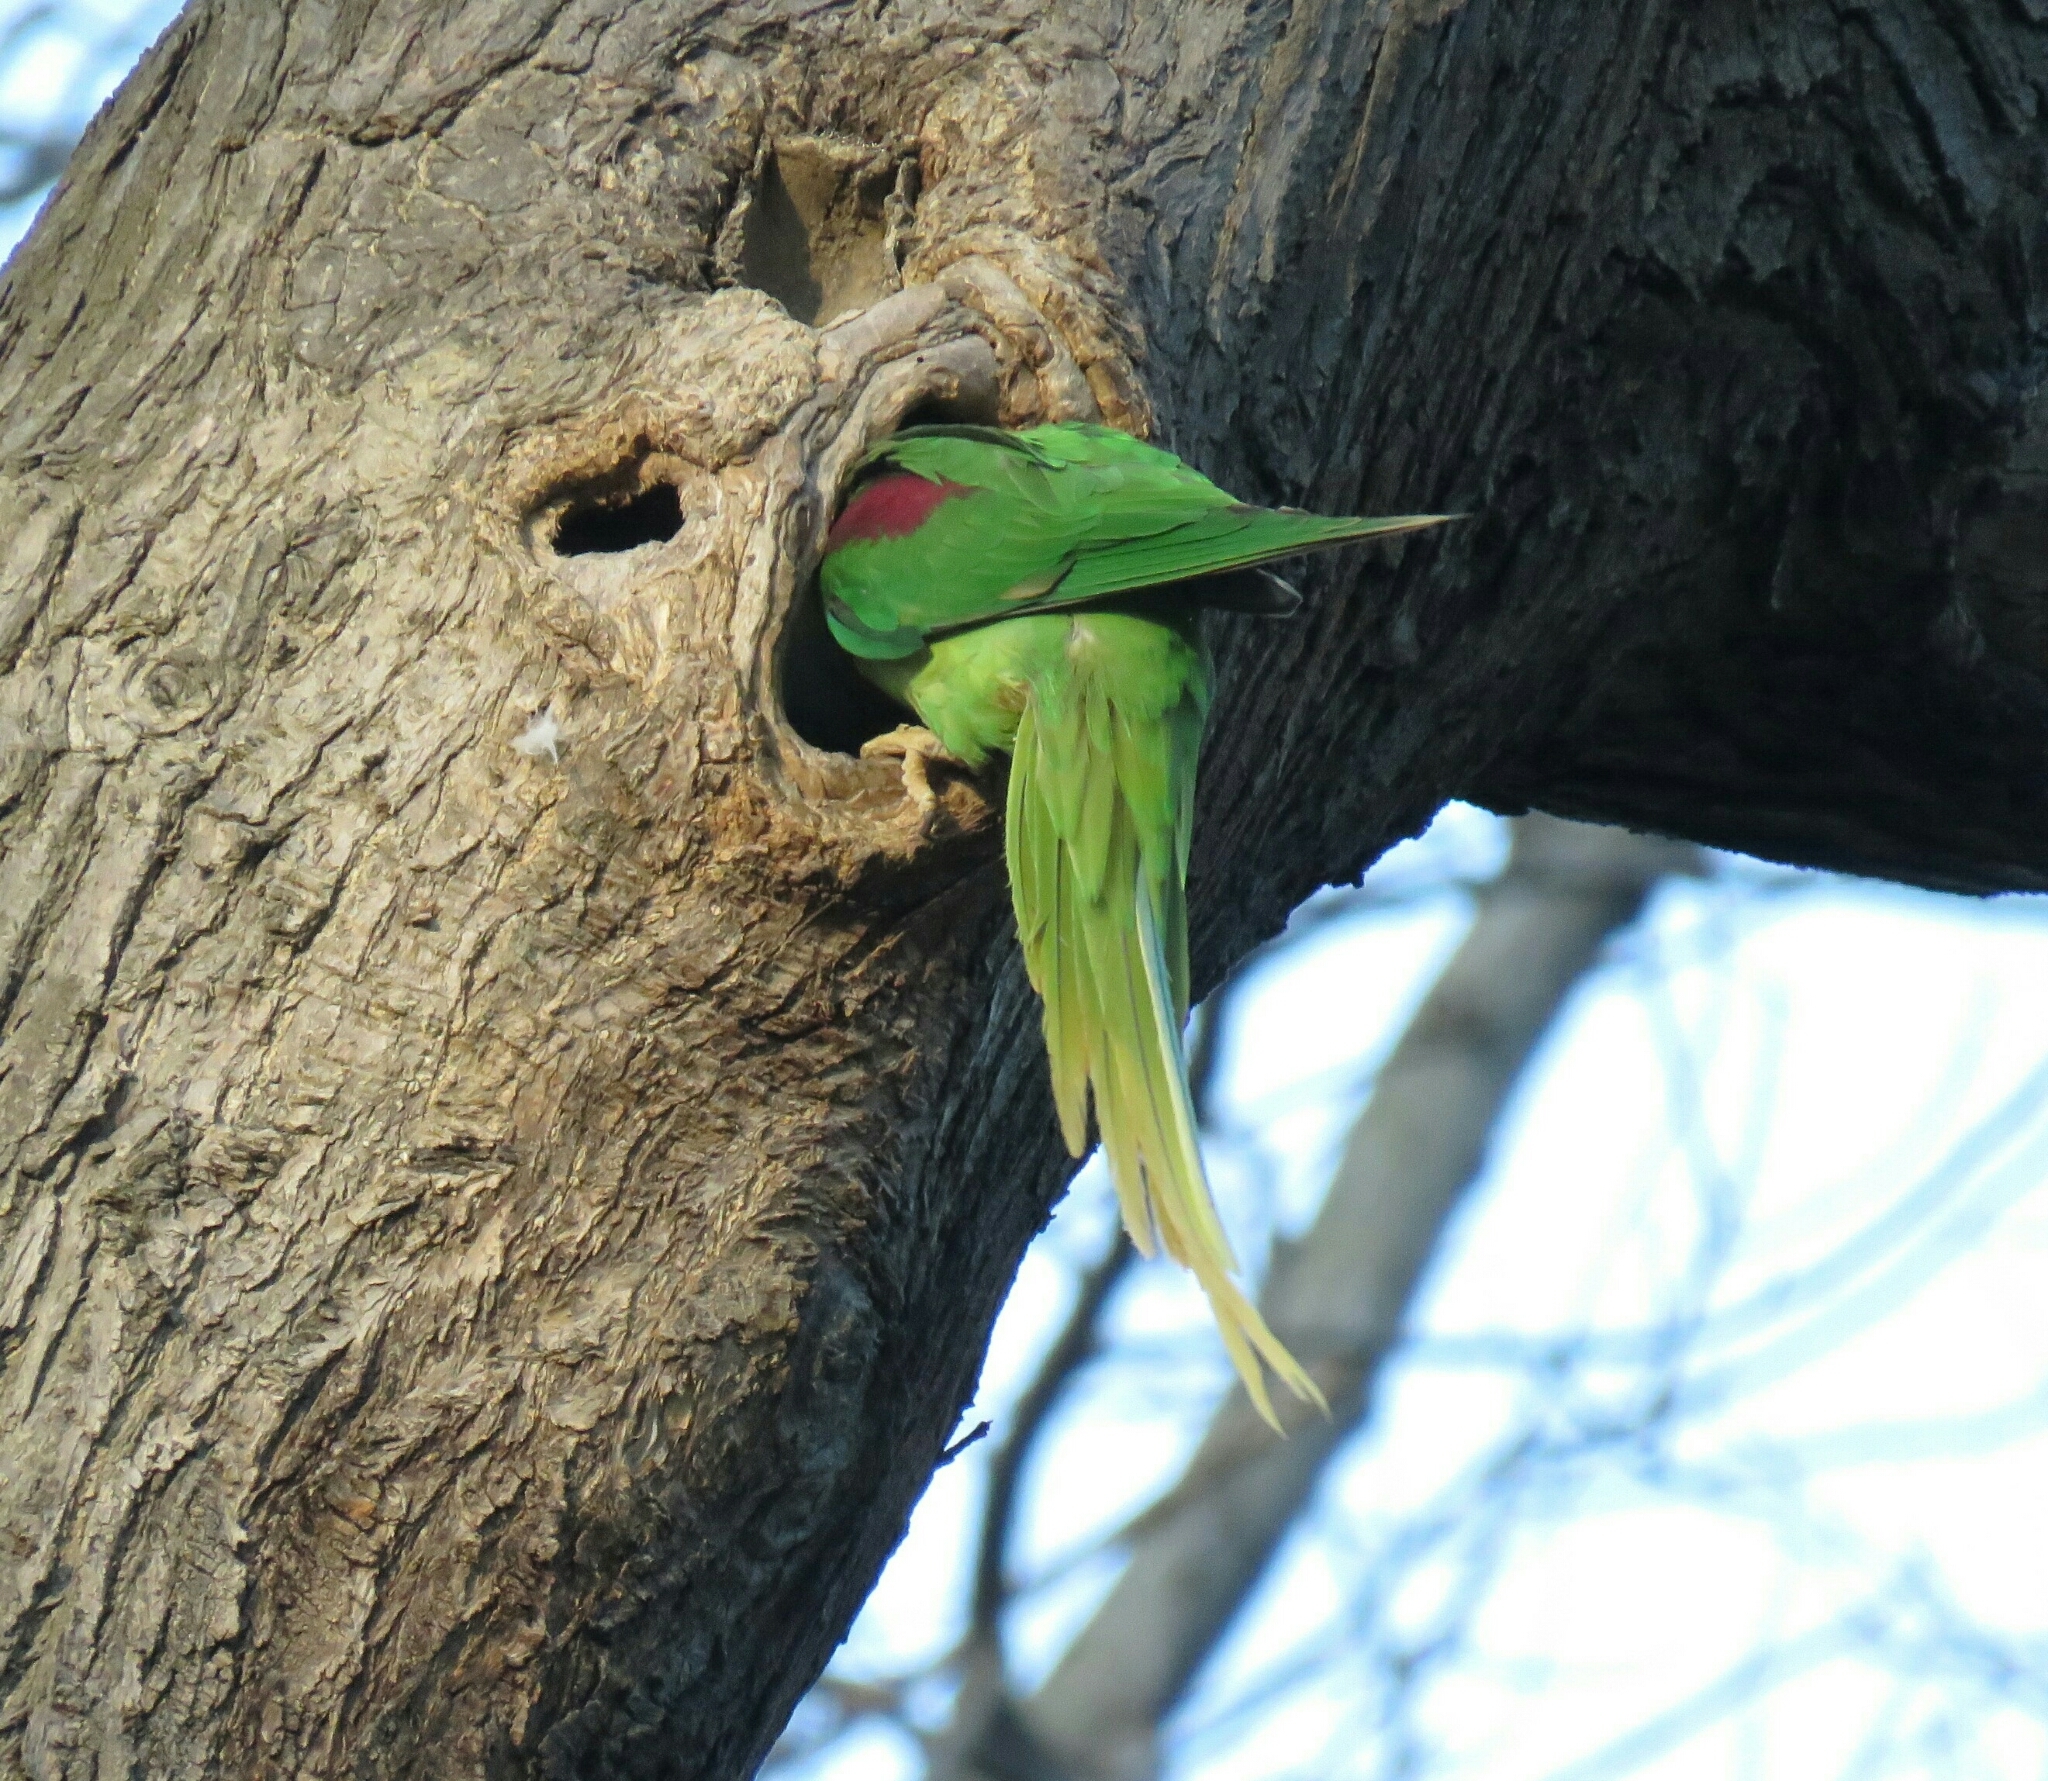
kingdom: Animalia
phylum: Chordata
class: Aves
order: Psittaciformes
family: Psittacidae
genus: Psittacula
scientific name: Psittacula eupatria
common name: Alexandrine parakeet
